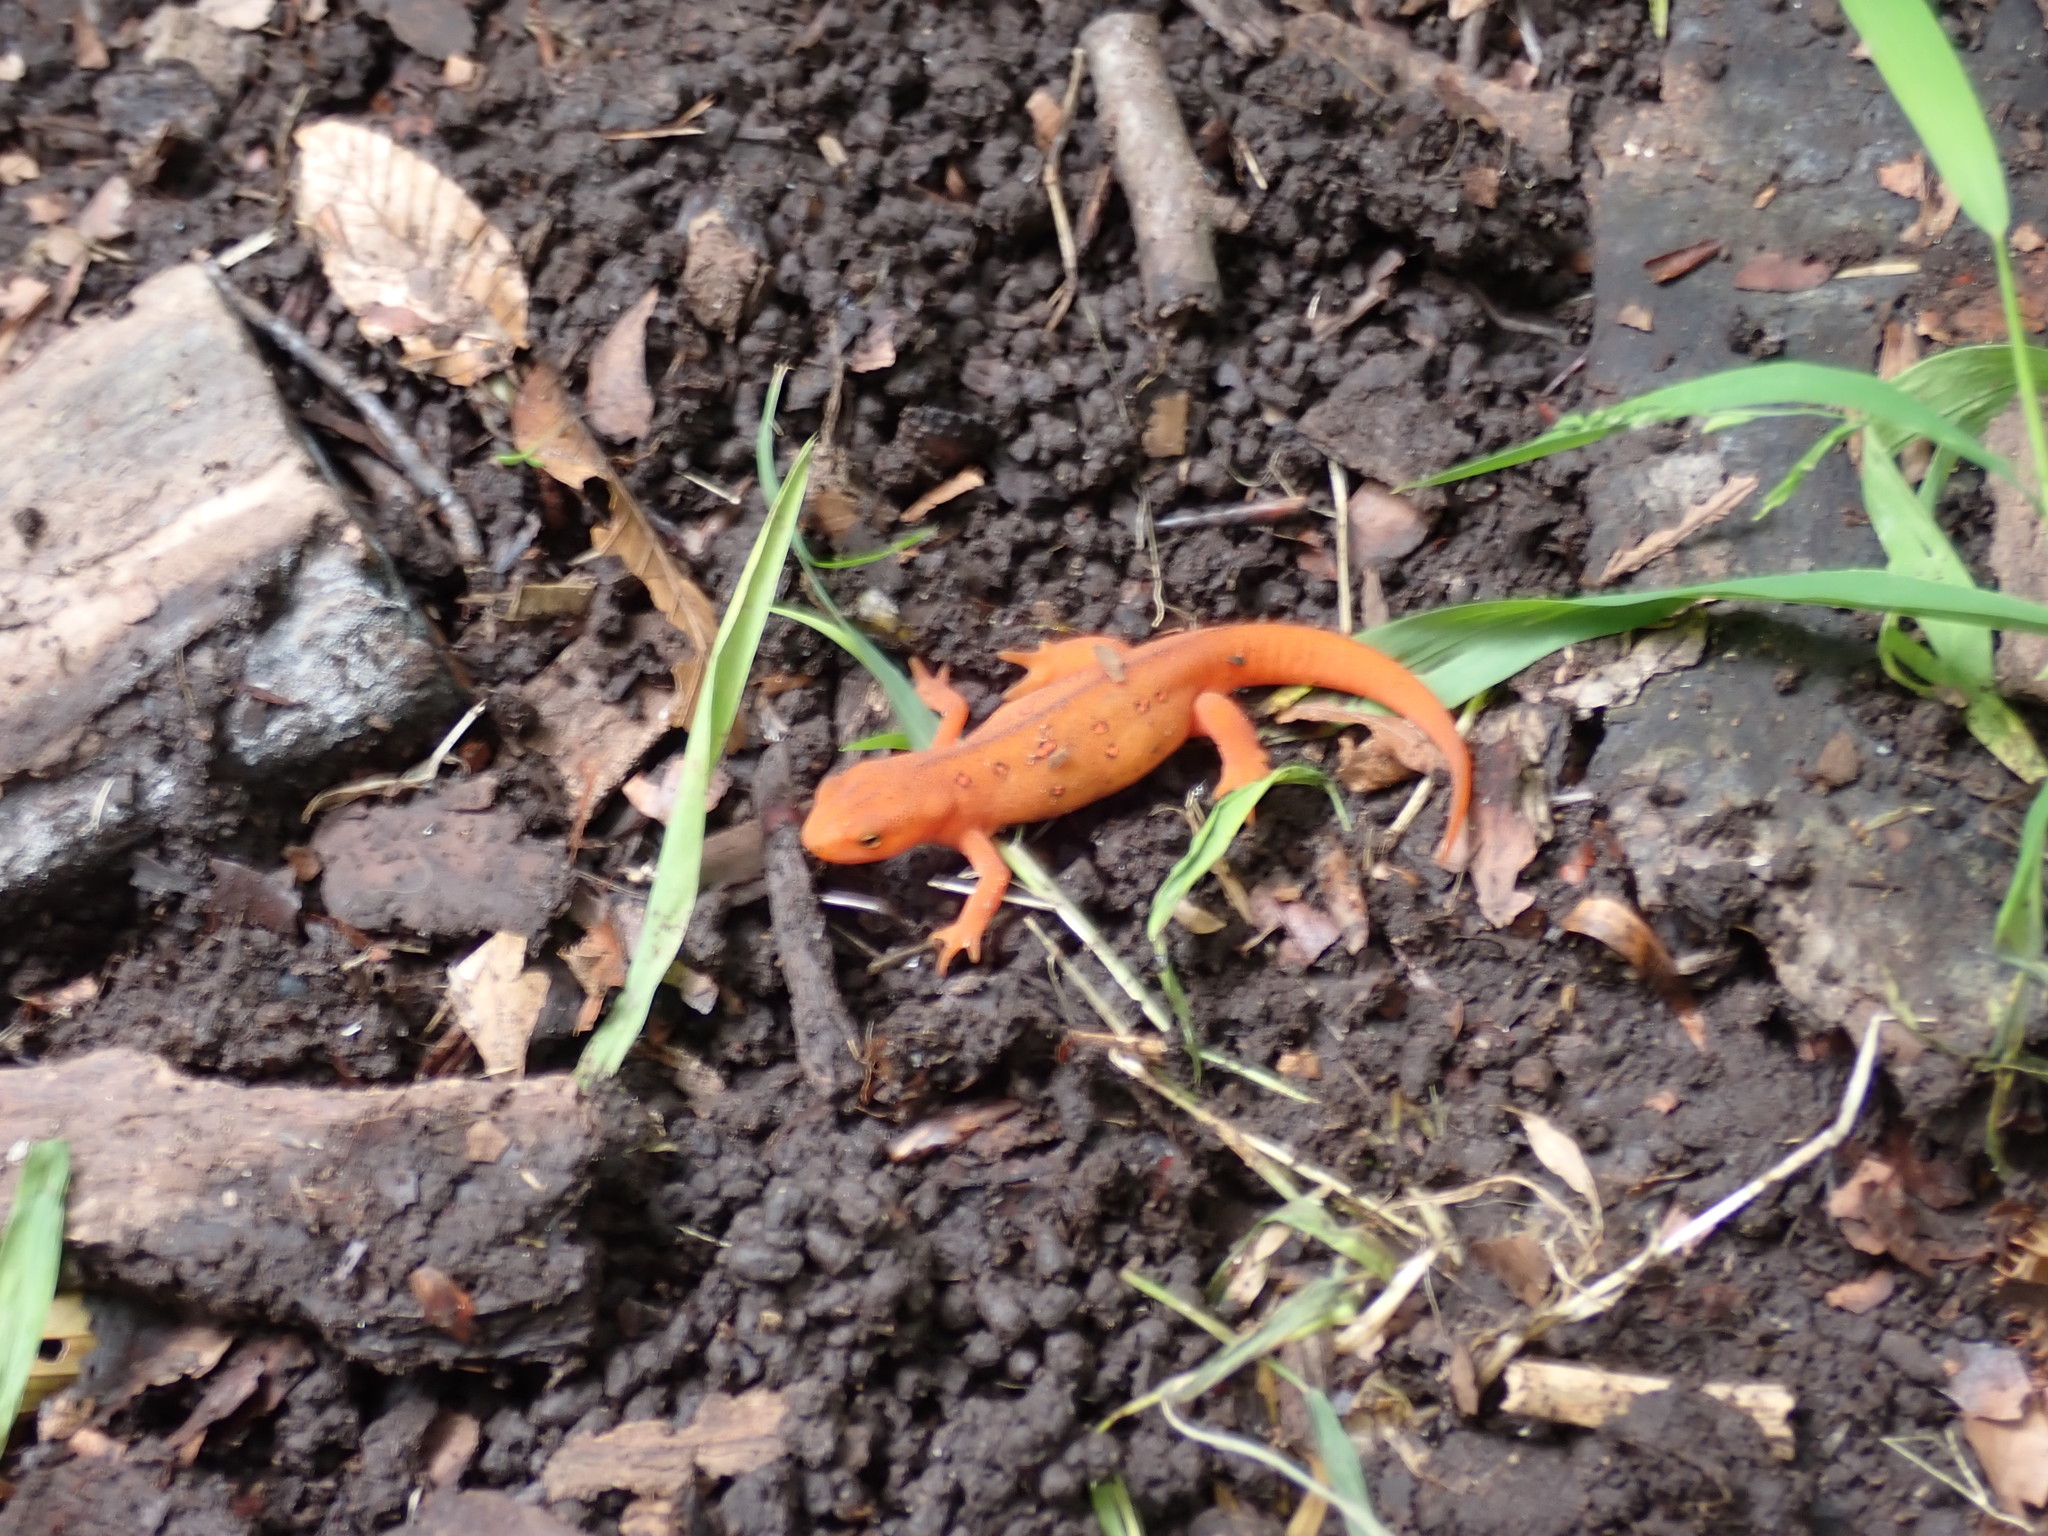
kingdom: Animalia
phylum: Chordata
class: Amphibia
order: Caudata
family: Salamandridae
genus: Notophthalmus
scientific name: Notophthalmus viridescens
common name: Eastern newt
